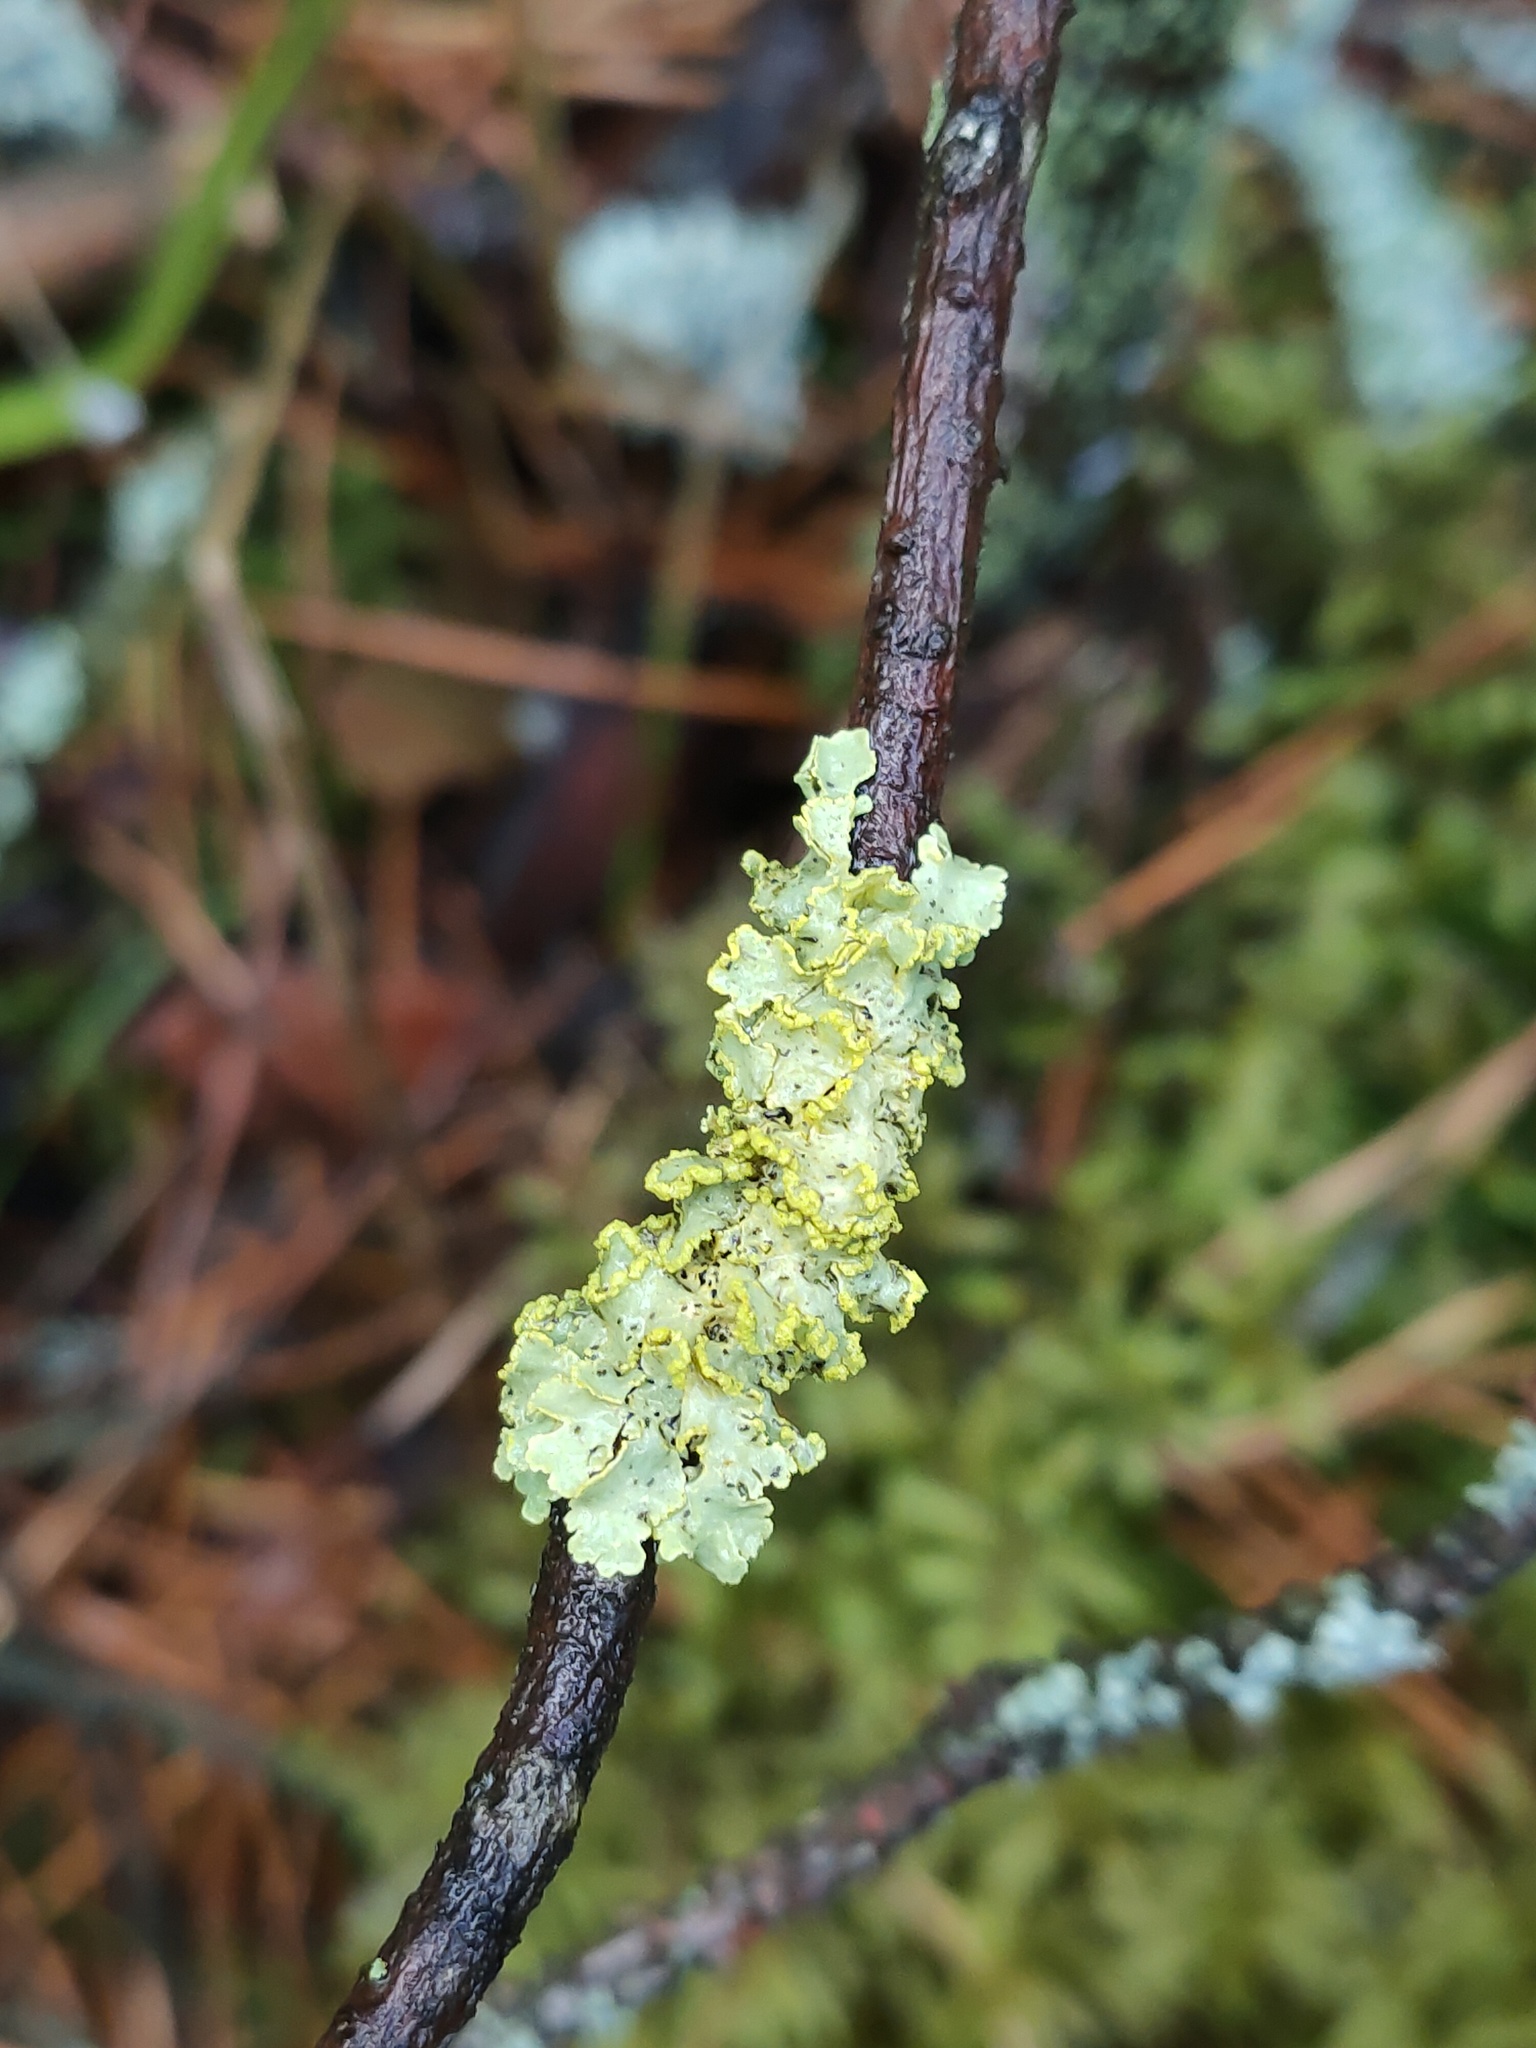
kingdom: Fungi
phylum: Ascomycota
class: Lecanoromycetes
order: Lecanorales
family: Parmeliaceae
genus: Vulpicida
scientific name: Vulpicida pinastri
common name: Powdered sunshine lichen
